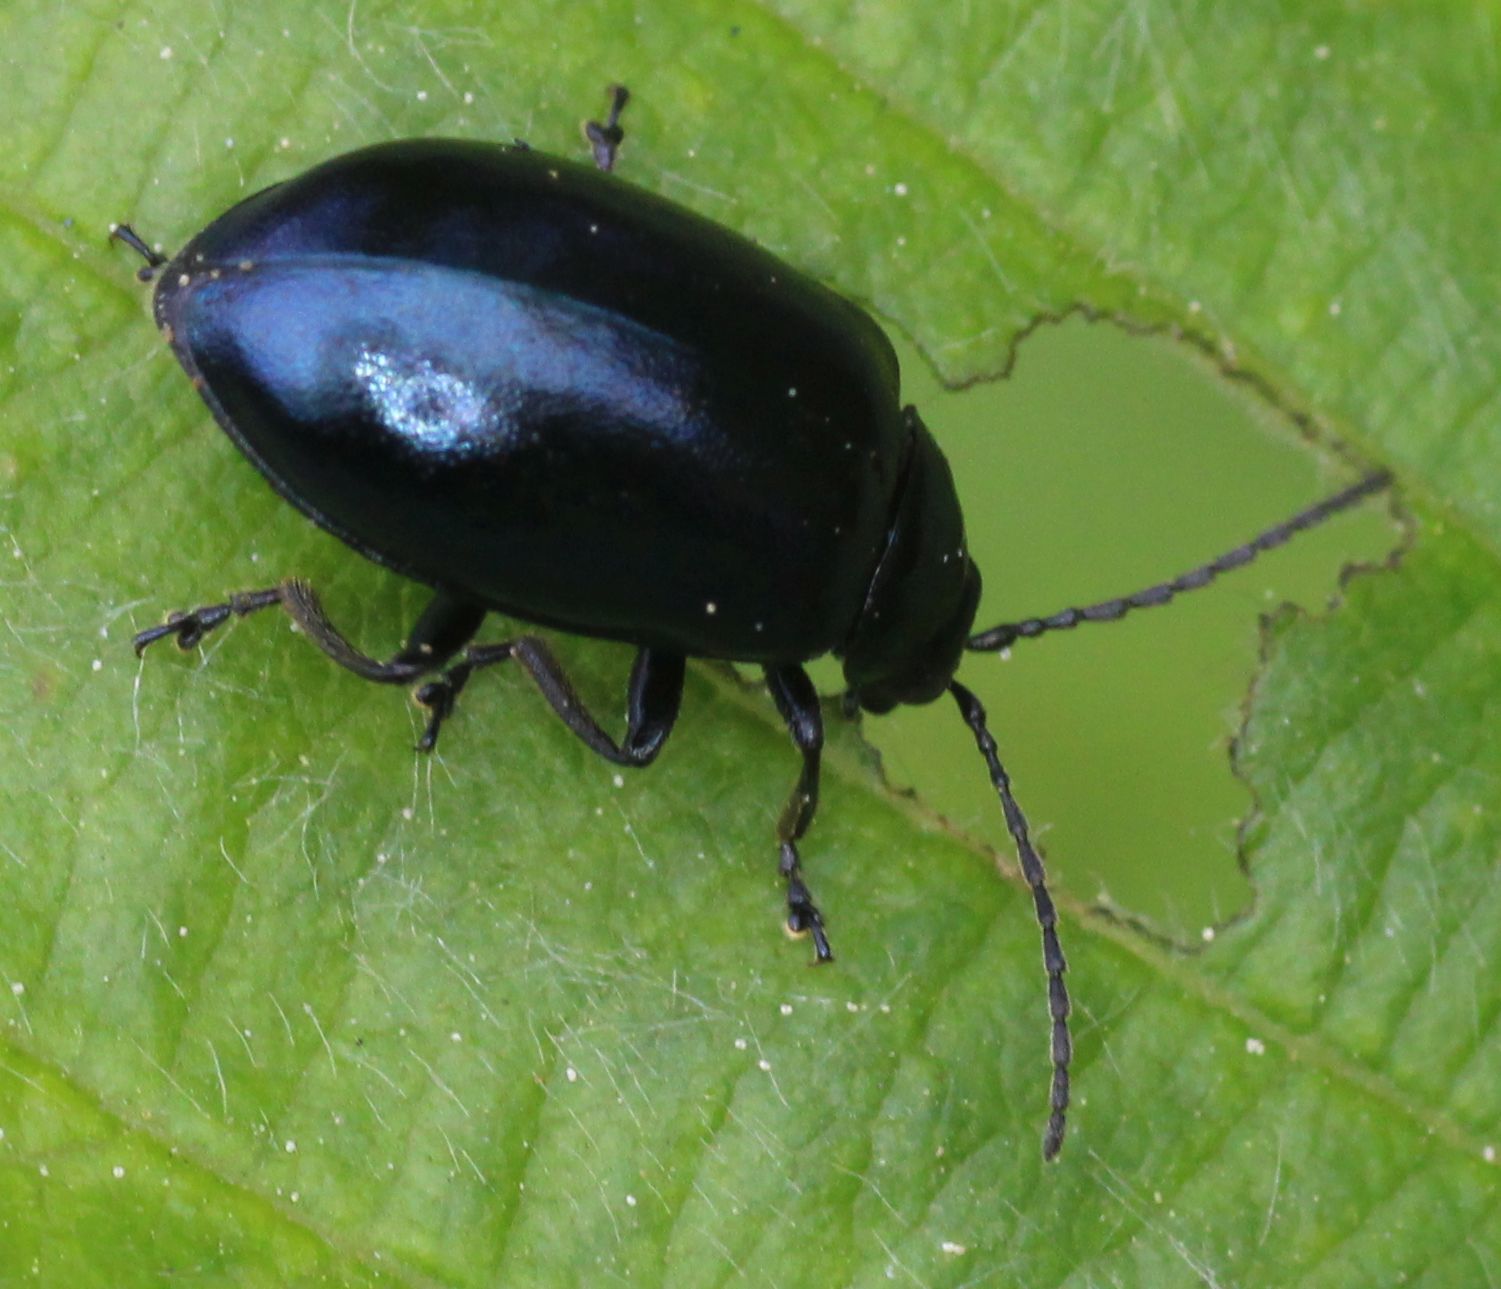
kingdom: Animalia
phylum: Arthropoda
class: Insecta
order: Coleoptera
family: Chrysomelidae
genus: Agelastica
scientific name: Agelastica alni
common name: Alder leaf beetle
